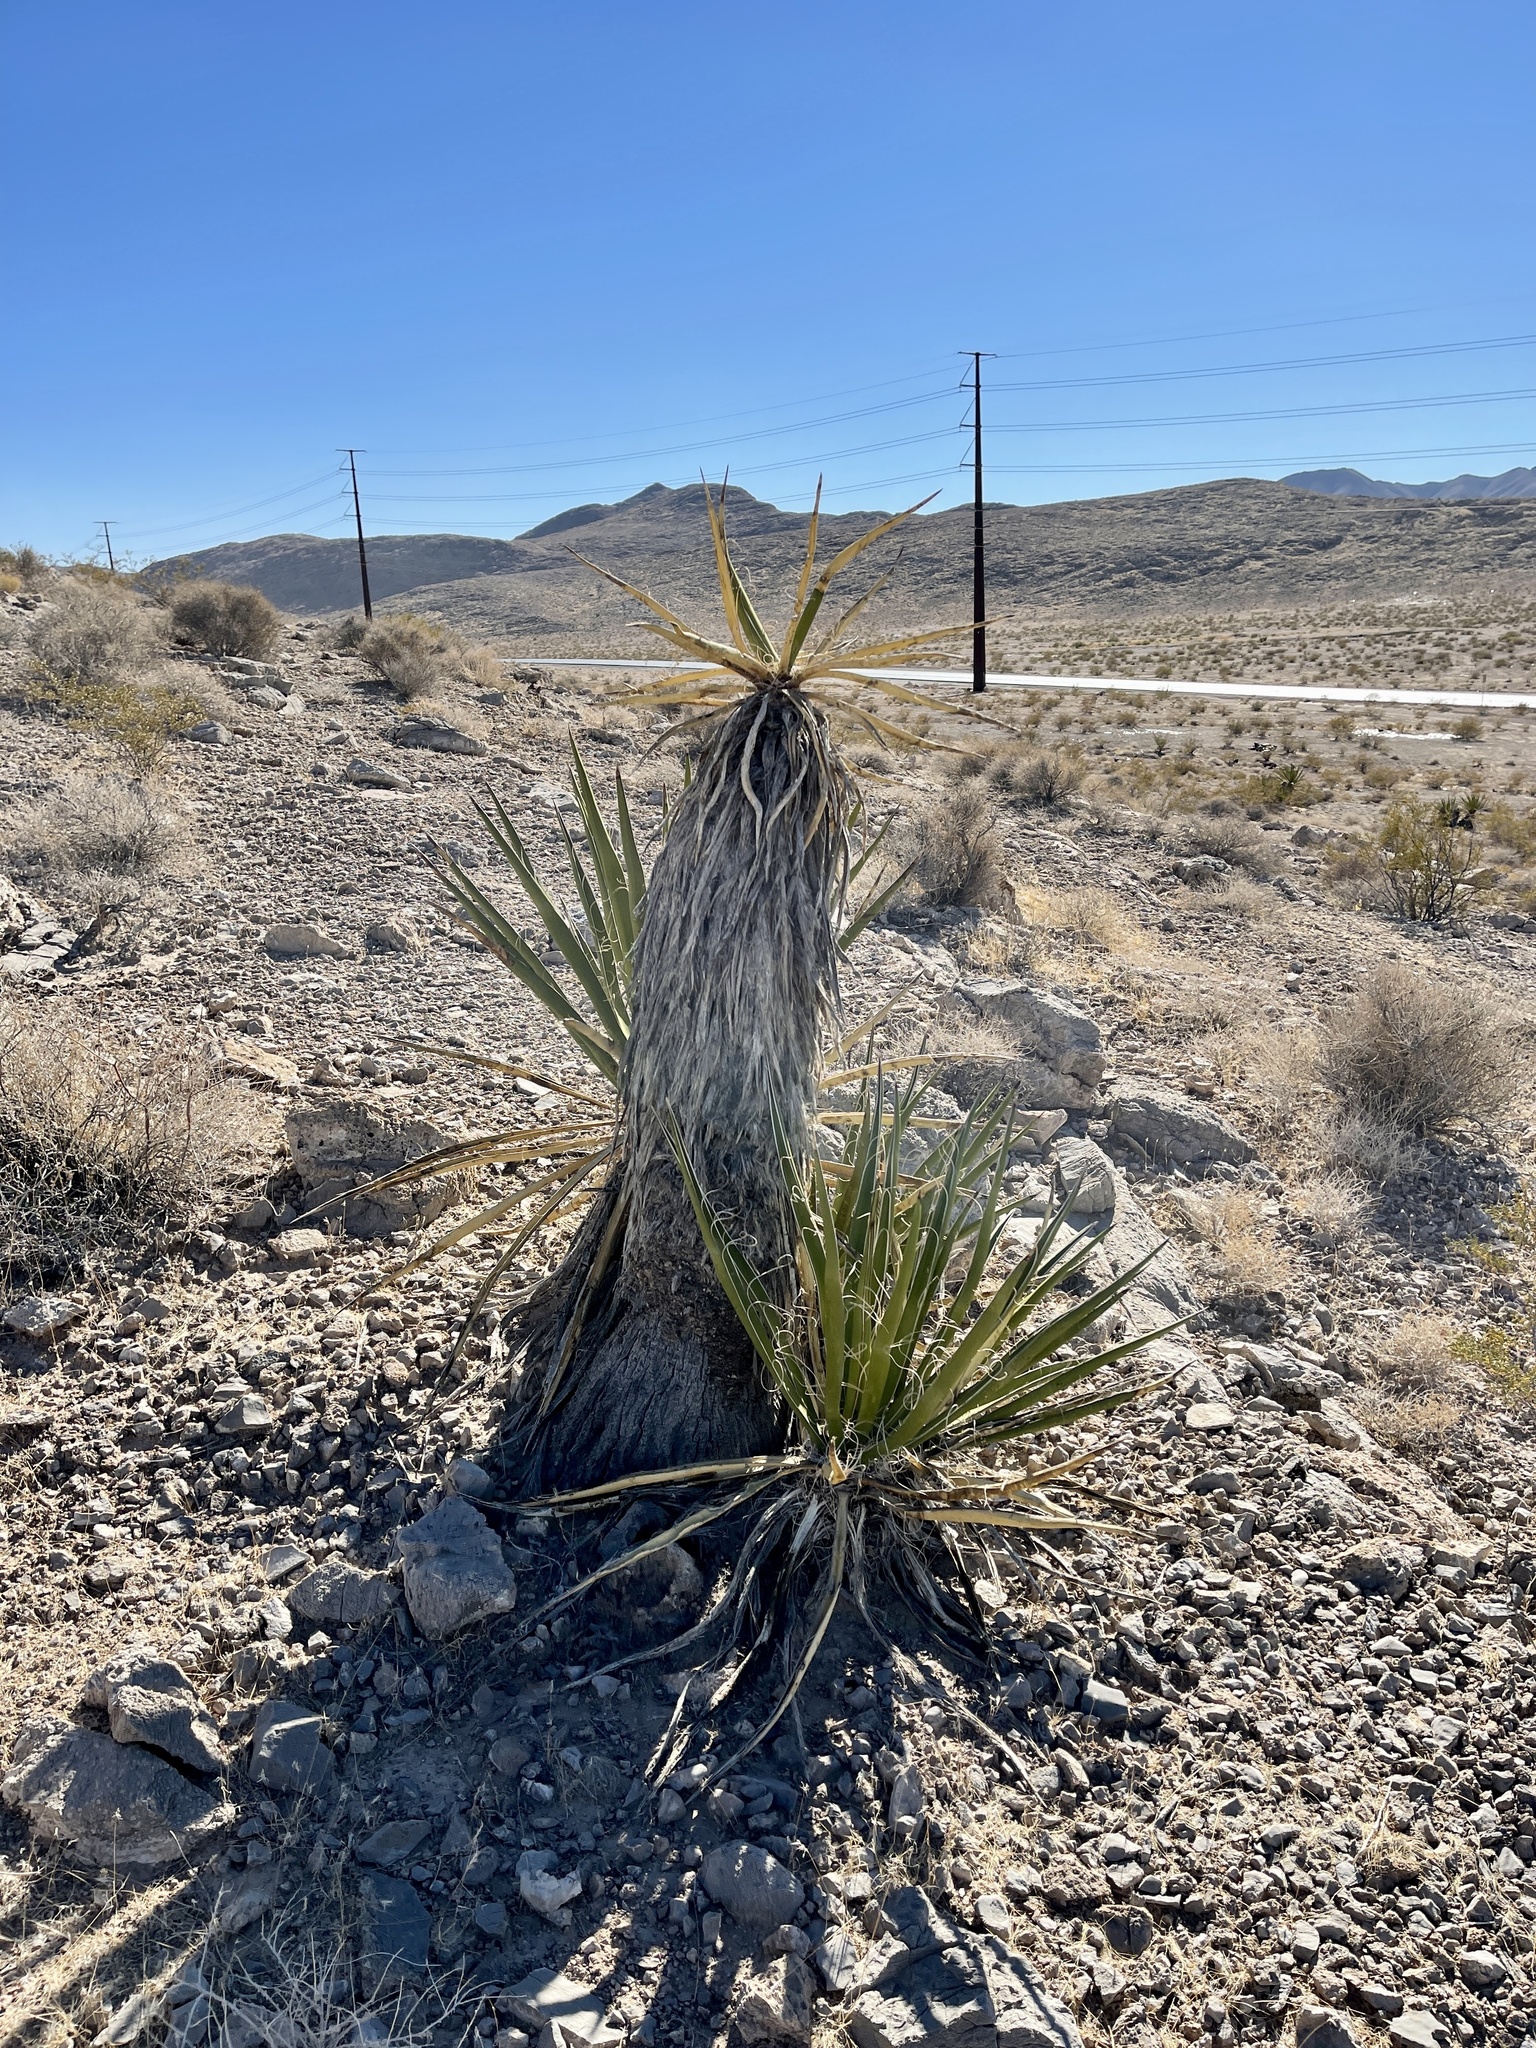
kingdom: Plantae
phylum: Tracheophyta
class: Liliopsida
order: Asparagales
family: Asparagaceae
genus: Yucca
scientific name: Yucca schidigera
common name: Mojave yucca
